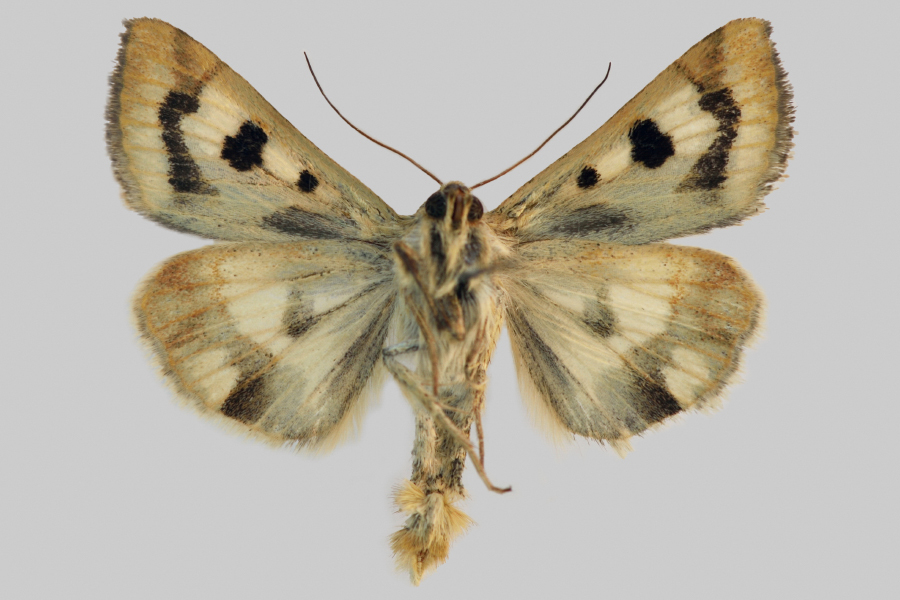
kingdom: Animalia
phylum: Arthropoda
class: Insecta
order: Lepidoptera
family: Noctuidae
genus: Heliothis
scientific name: Heliothis adaucta
